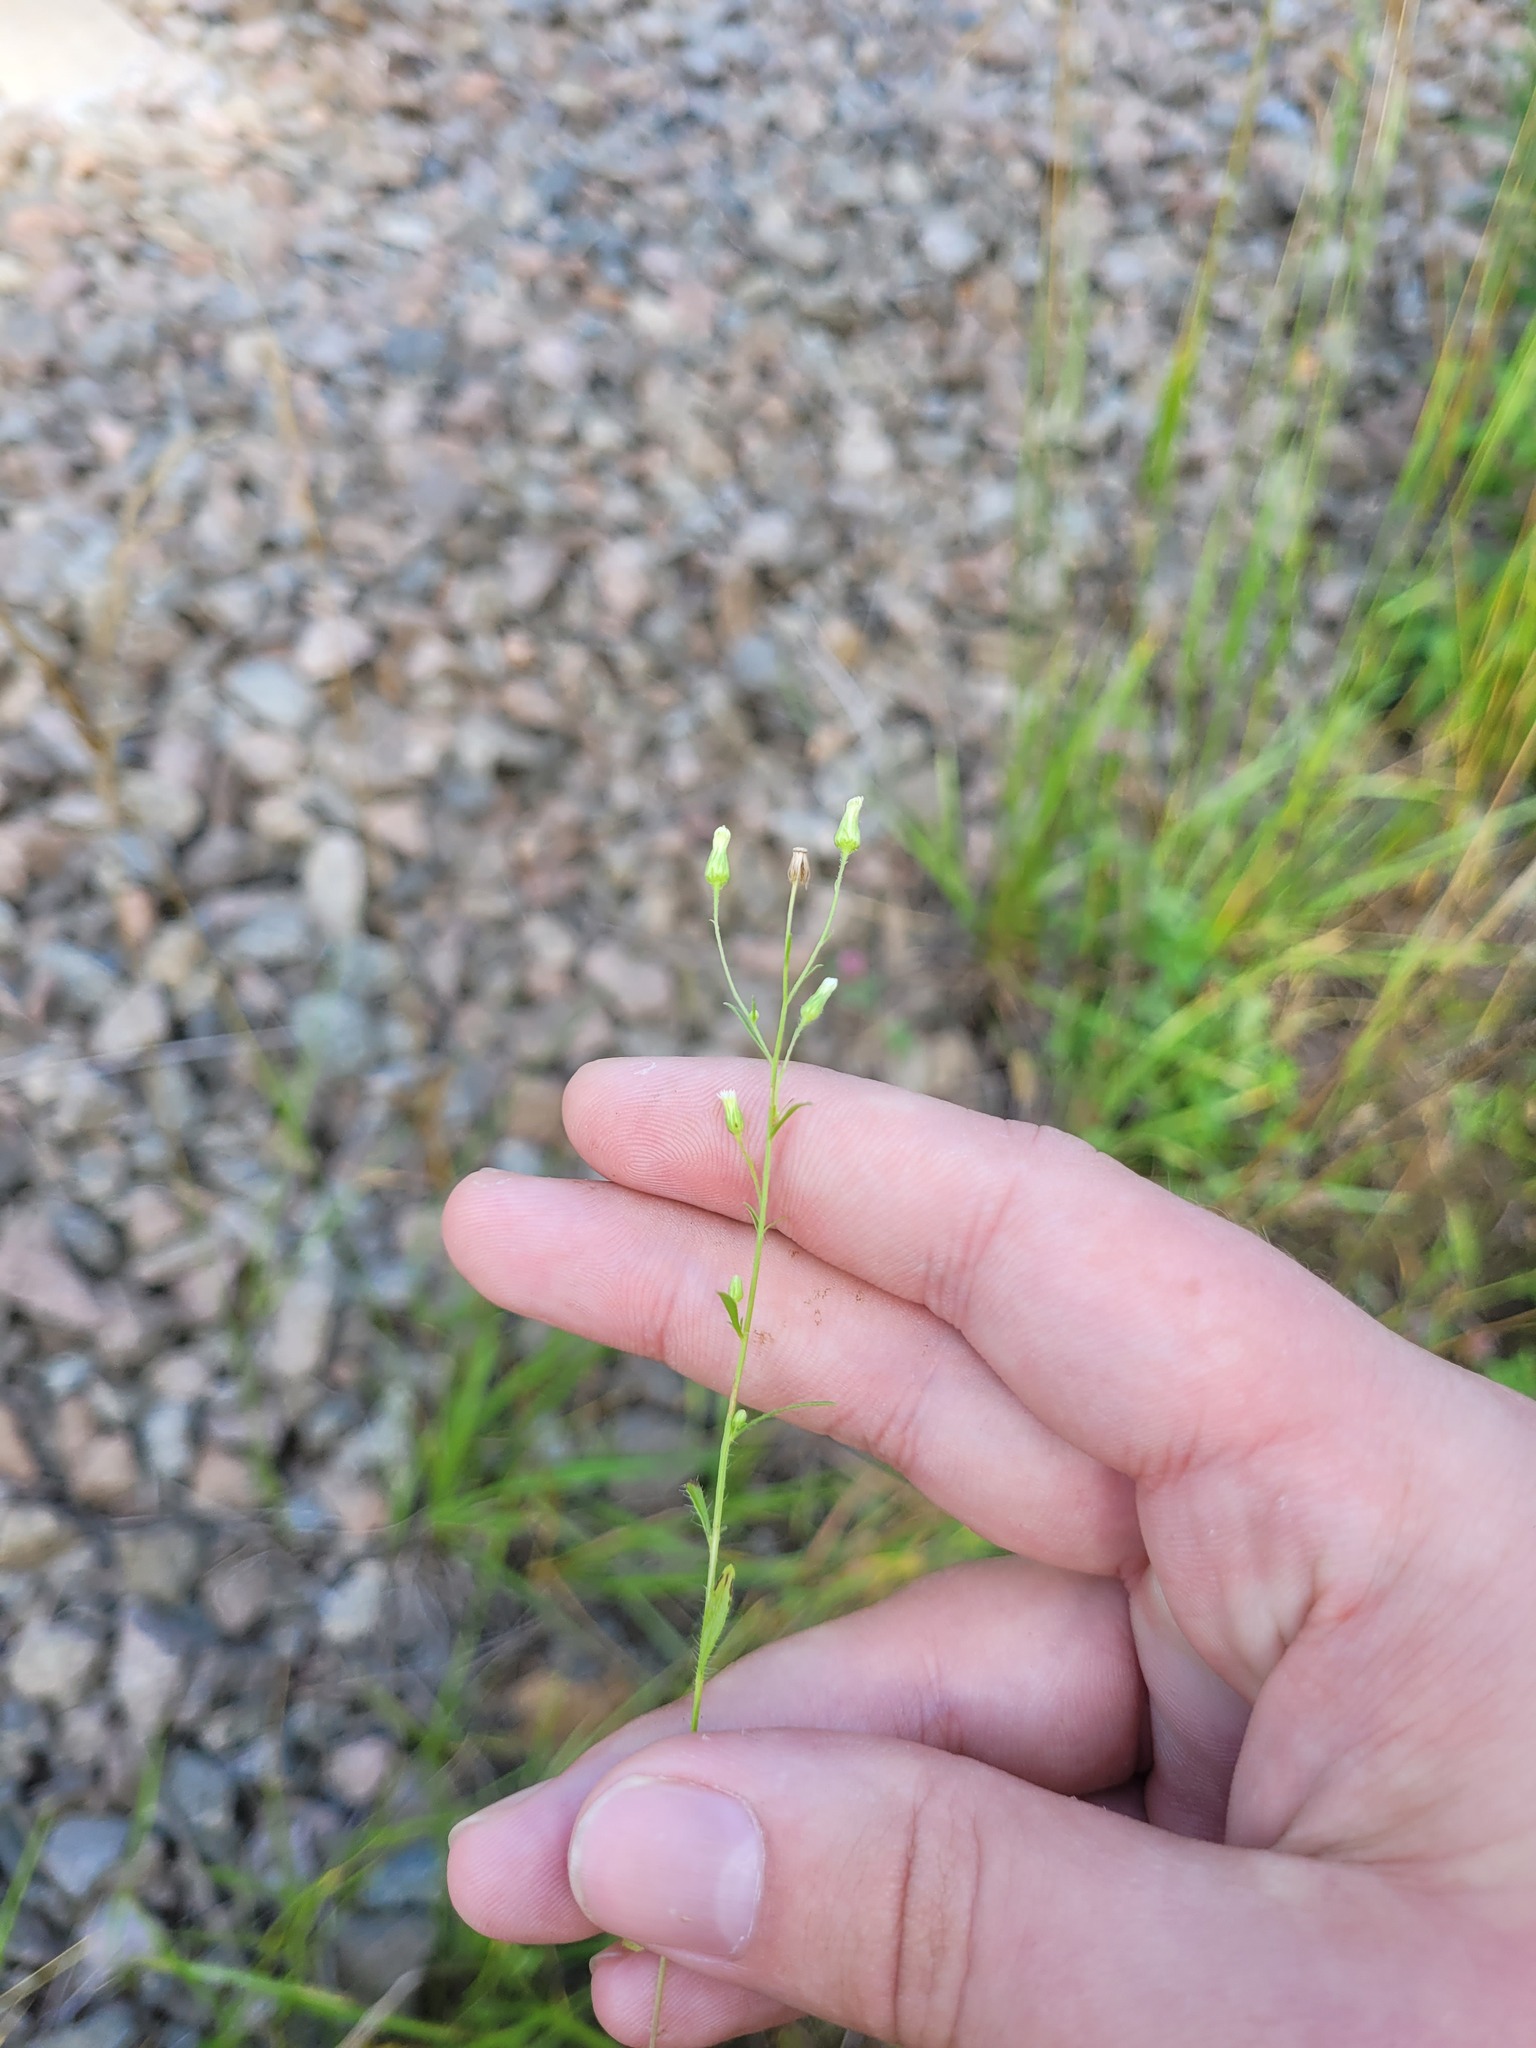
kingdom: Plantae
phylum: Tracheophyta
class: Magnoliopsida
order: Asterales
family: Asteraceae
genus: Erigeron
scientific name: Erigeron canadensis
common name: Canadian fleabane
